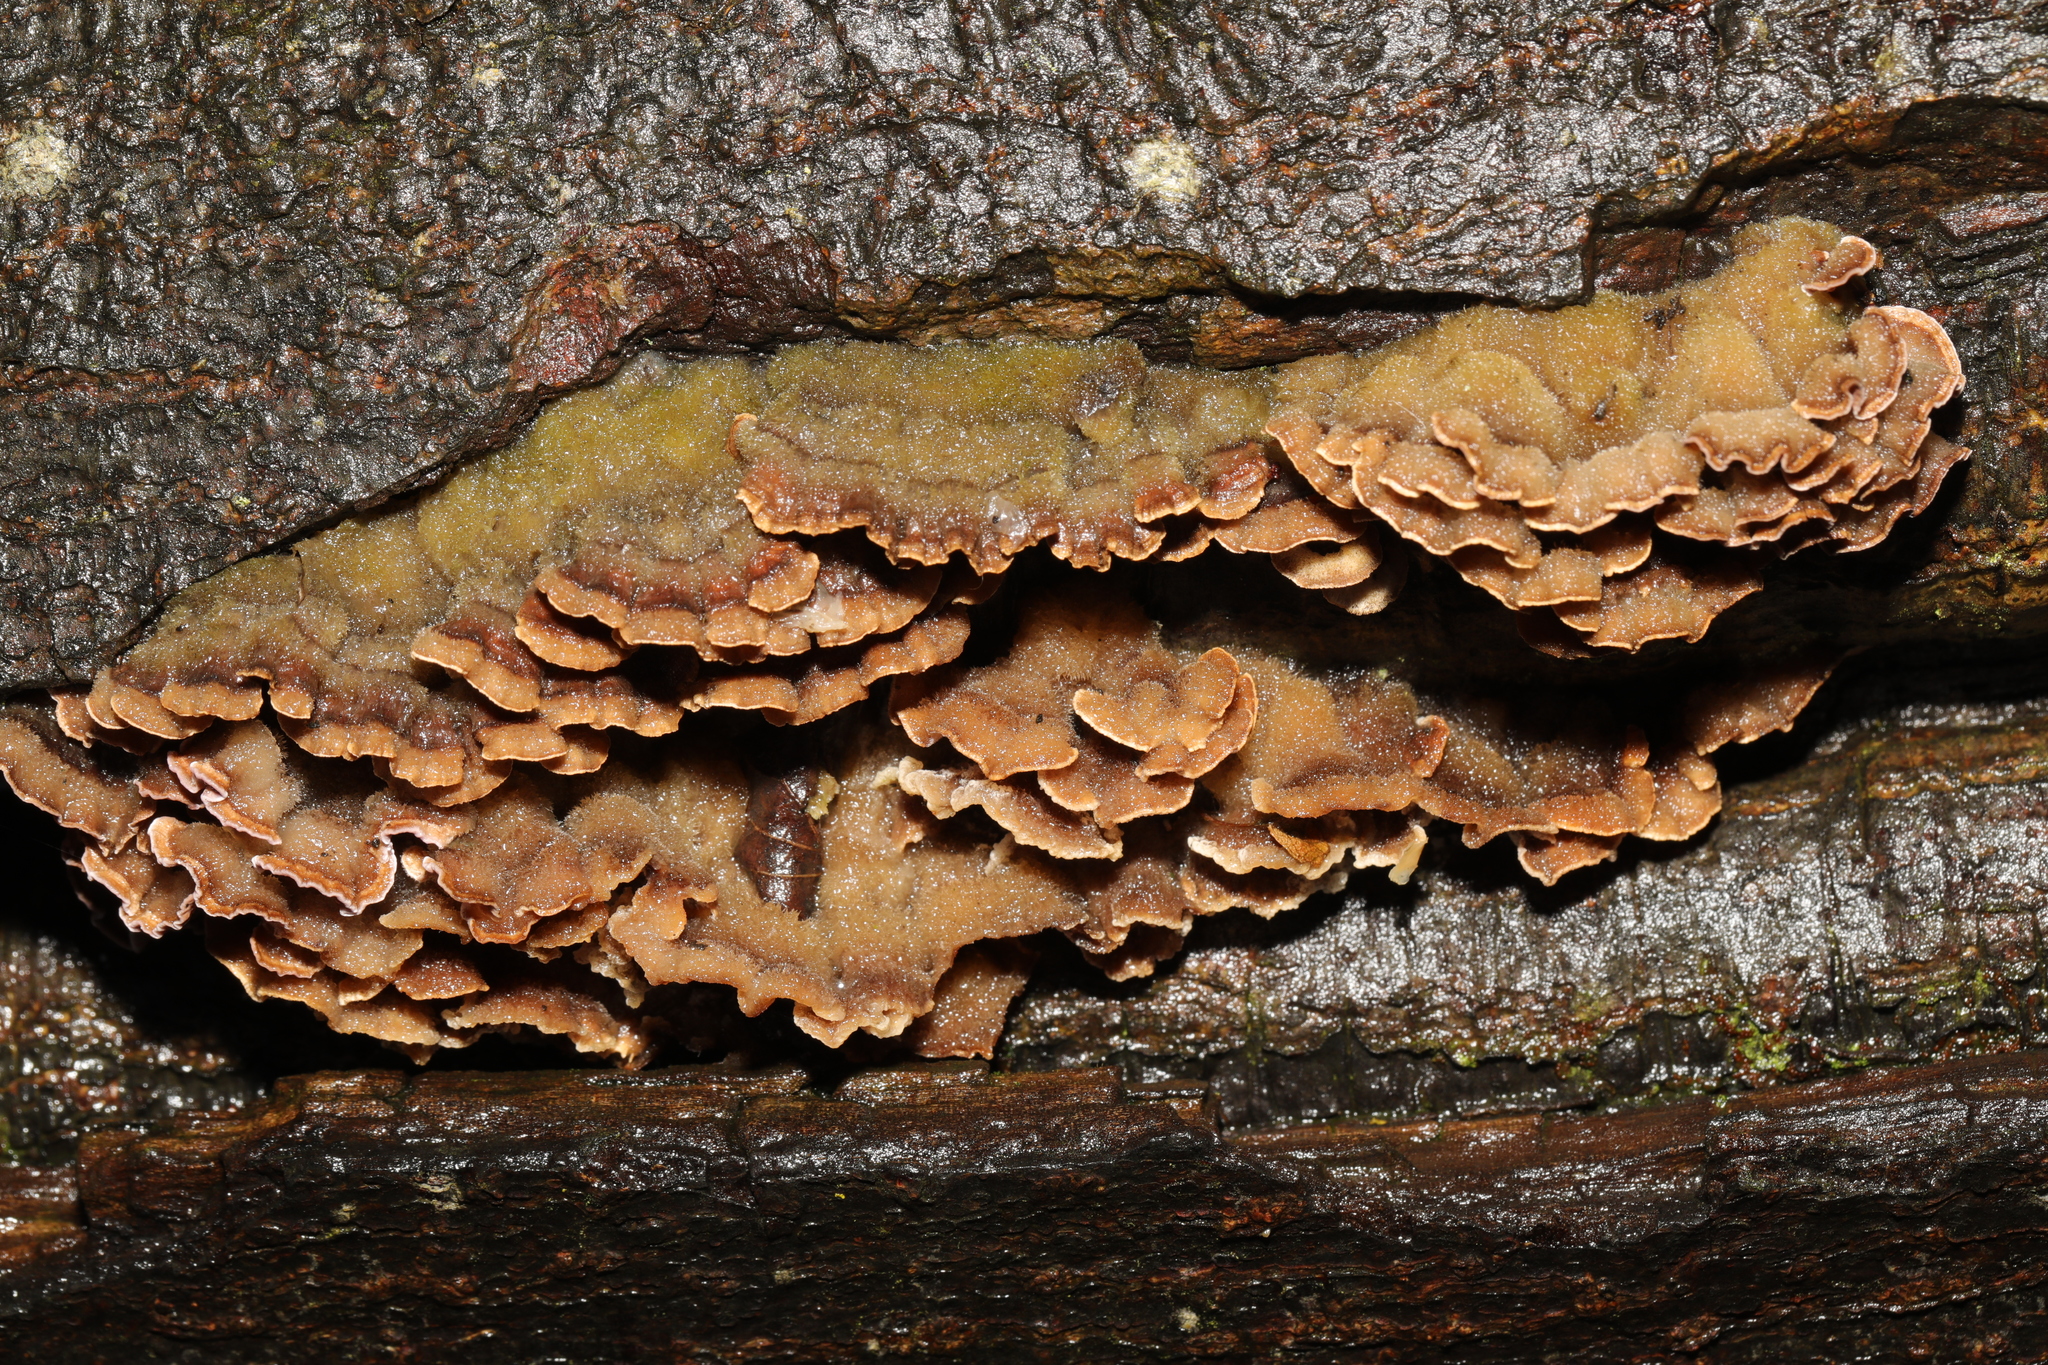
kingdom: Fungi
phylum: Basidiomycota
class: Agaricomycetes
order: Russulales
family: Stereaceae
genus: Stereum
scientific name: Stereum hirsutum
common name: Hairy curtain crust
